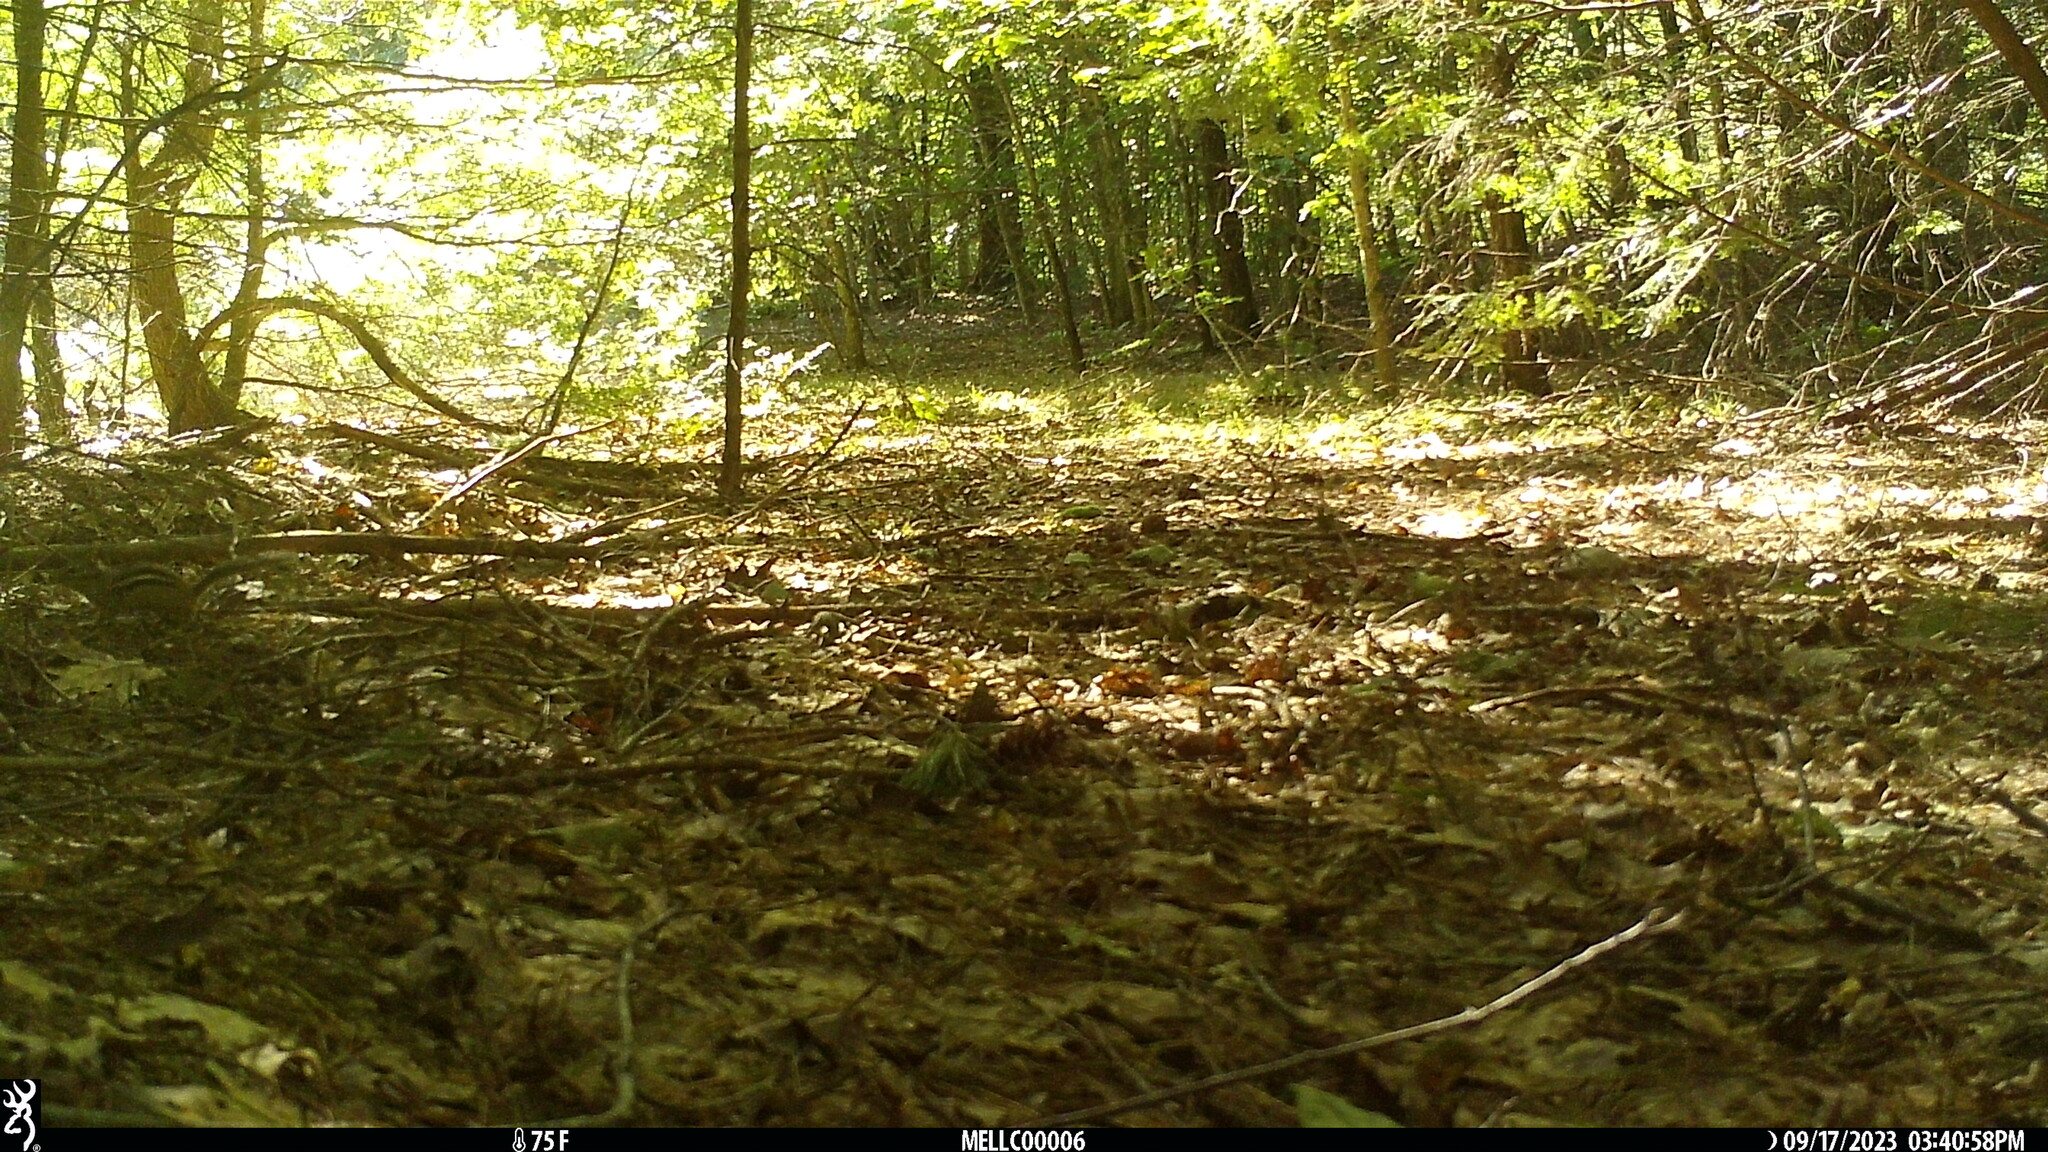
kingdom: Animalia
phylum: Chordata
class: Mammalia
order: Rodentia
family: Sciuridae
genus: Tamias
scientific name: Tamias striatus
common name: Eastern chipmunk
